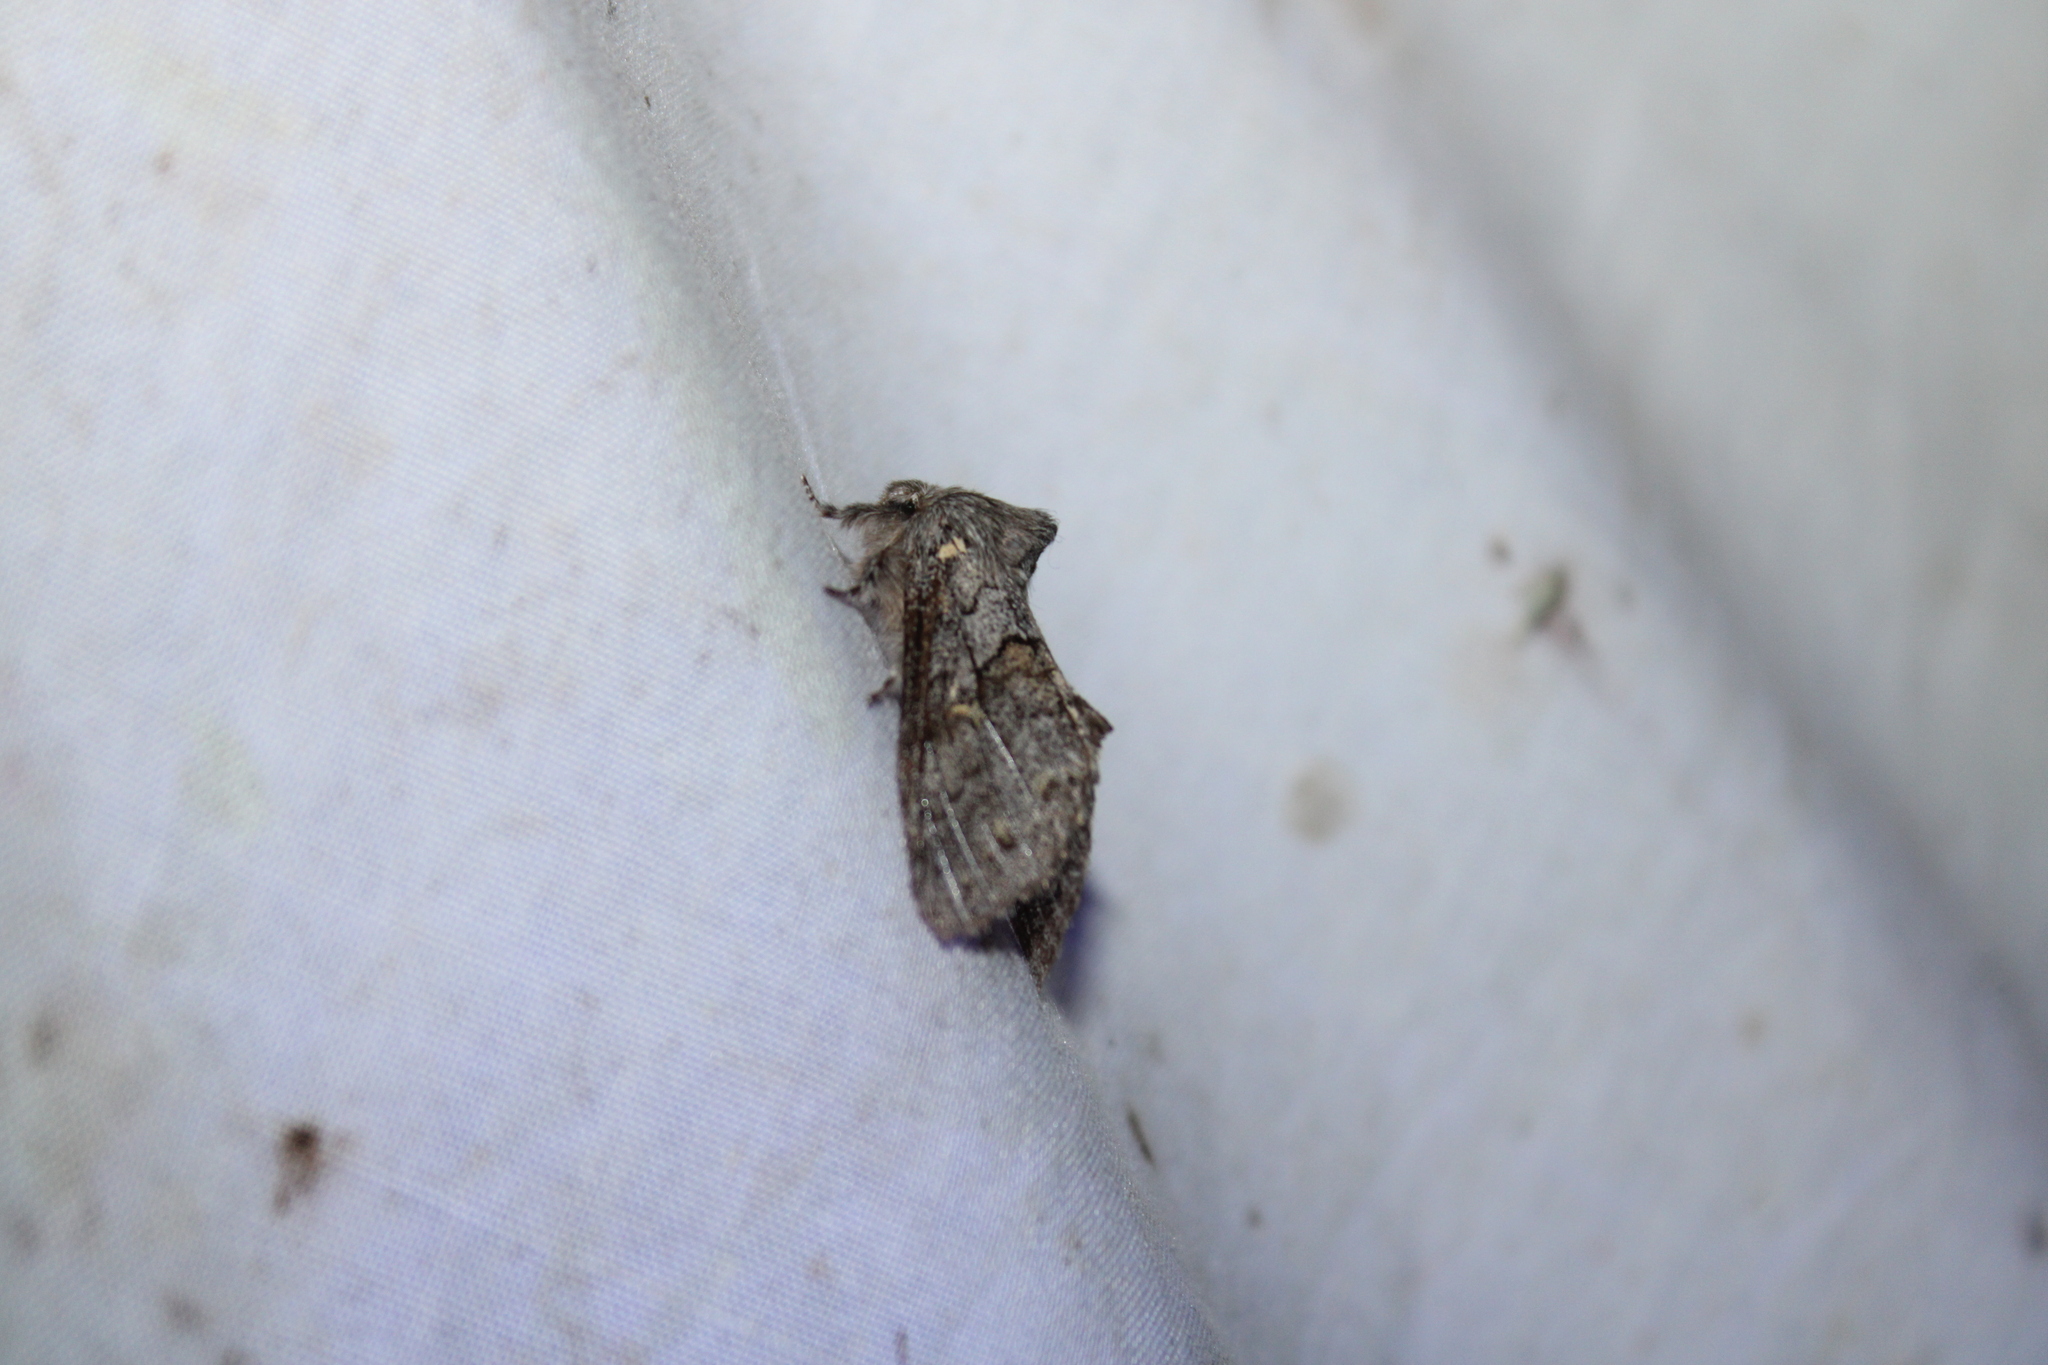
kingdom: Animalia
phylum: Arthropoda
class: Insecta
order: Lepidoptera
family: Notodontidae
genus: Gluphisia
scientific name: Gluphisia avimacula
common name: Four-spotted gluphisia moth
